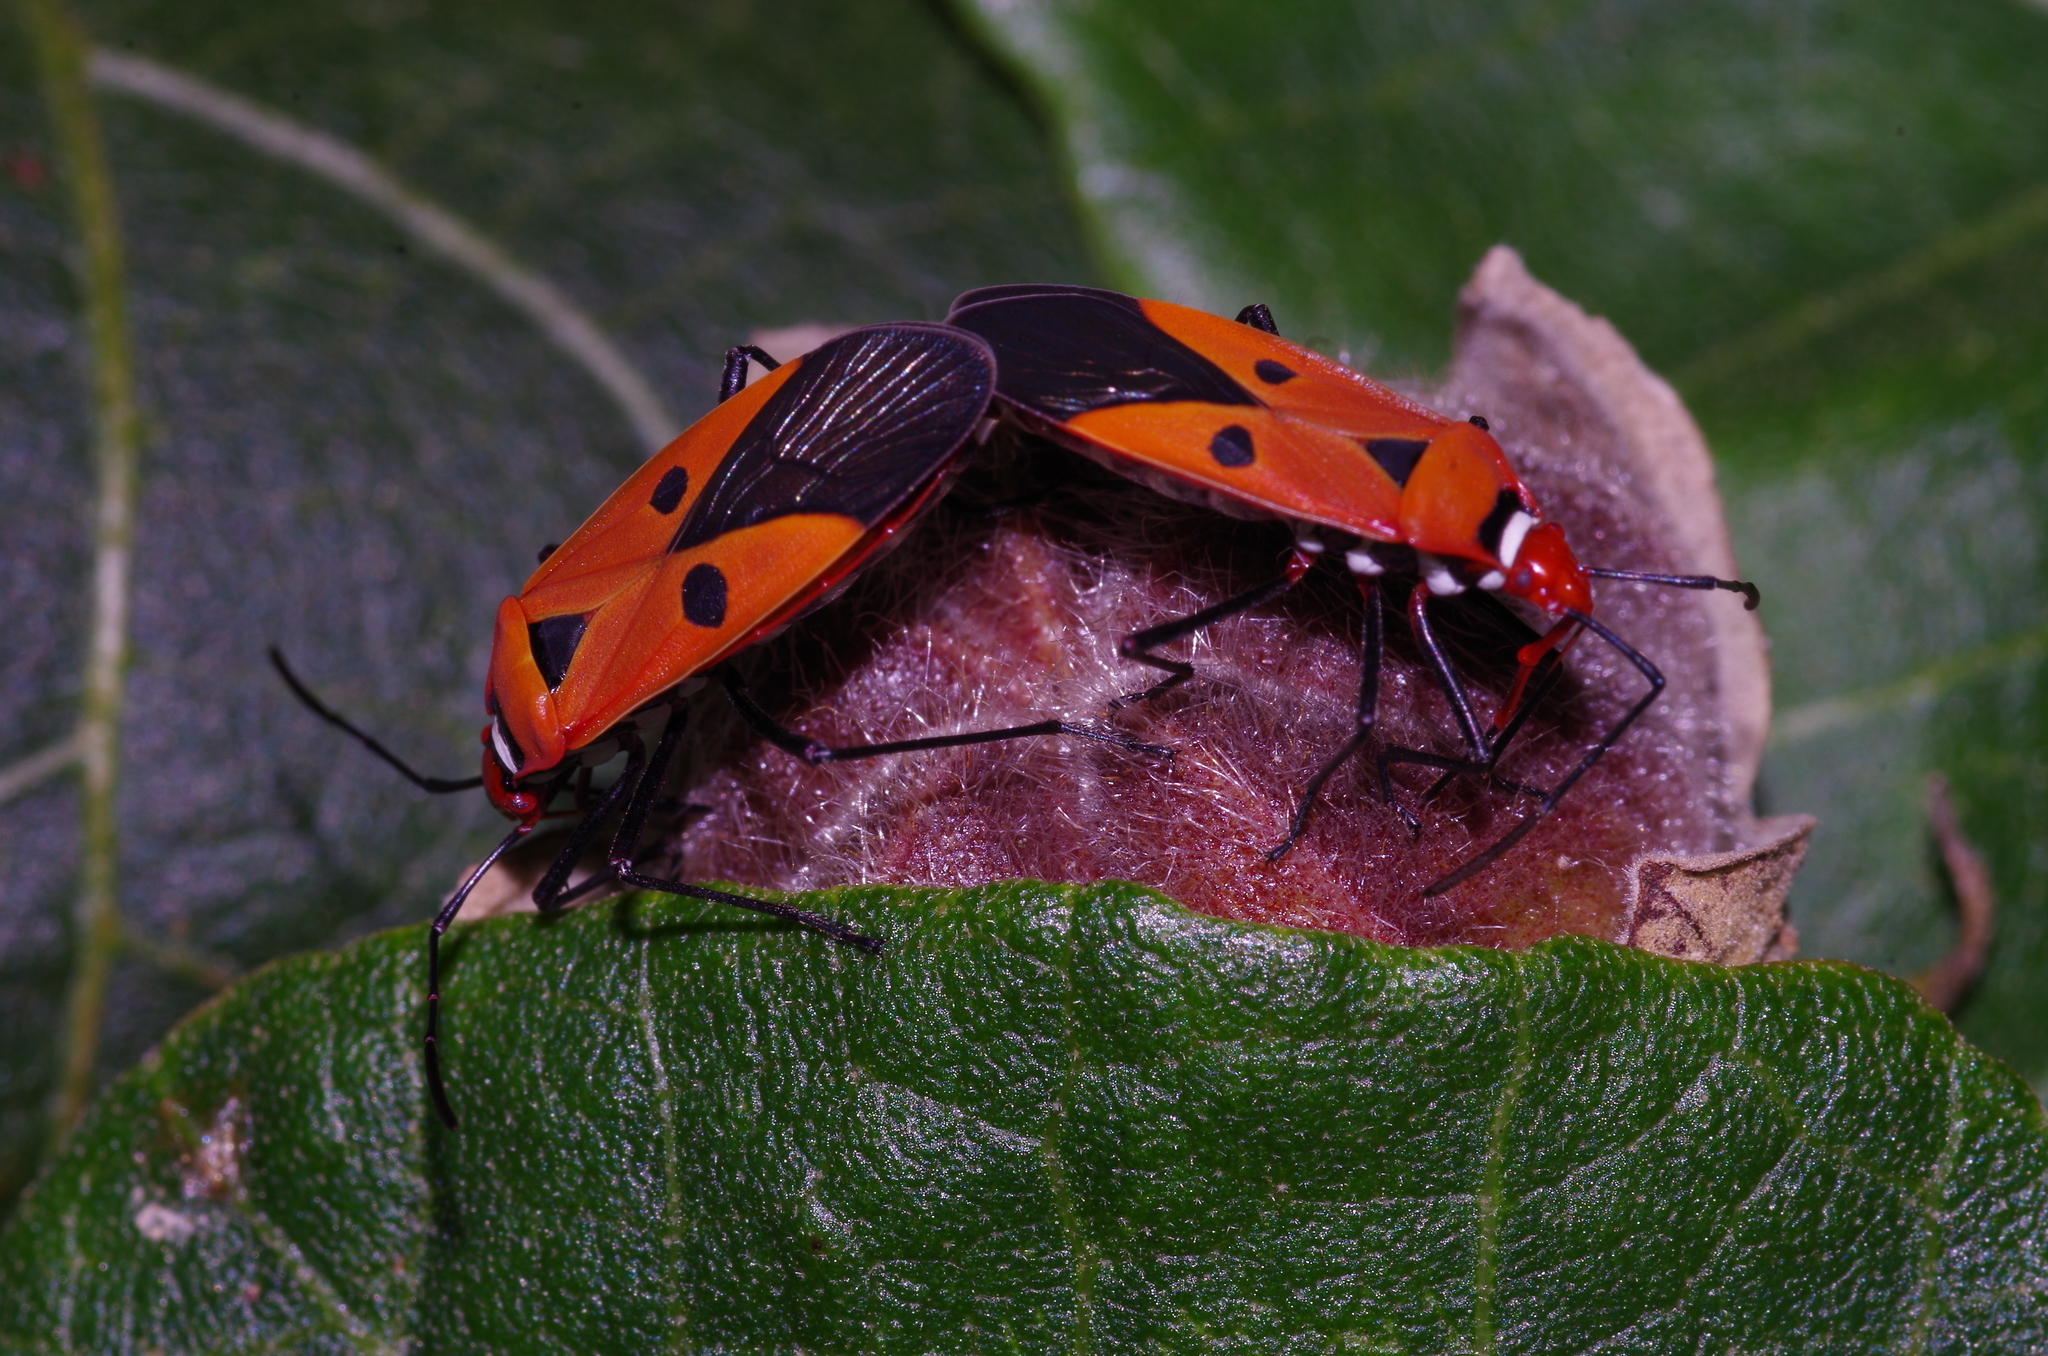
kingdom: Animalia
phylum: Arthropoda
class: Insecta
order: Hemiptera
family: Pyrrhocoridae
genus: Dysdercus
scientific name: Dysdercus cingulatus
